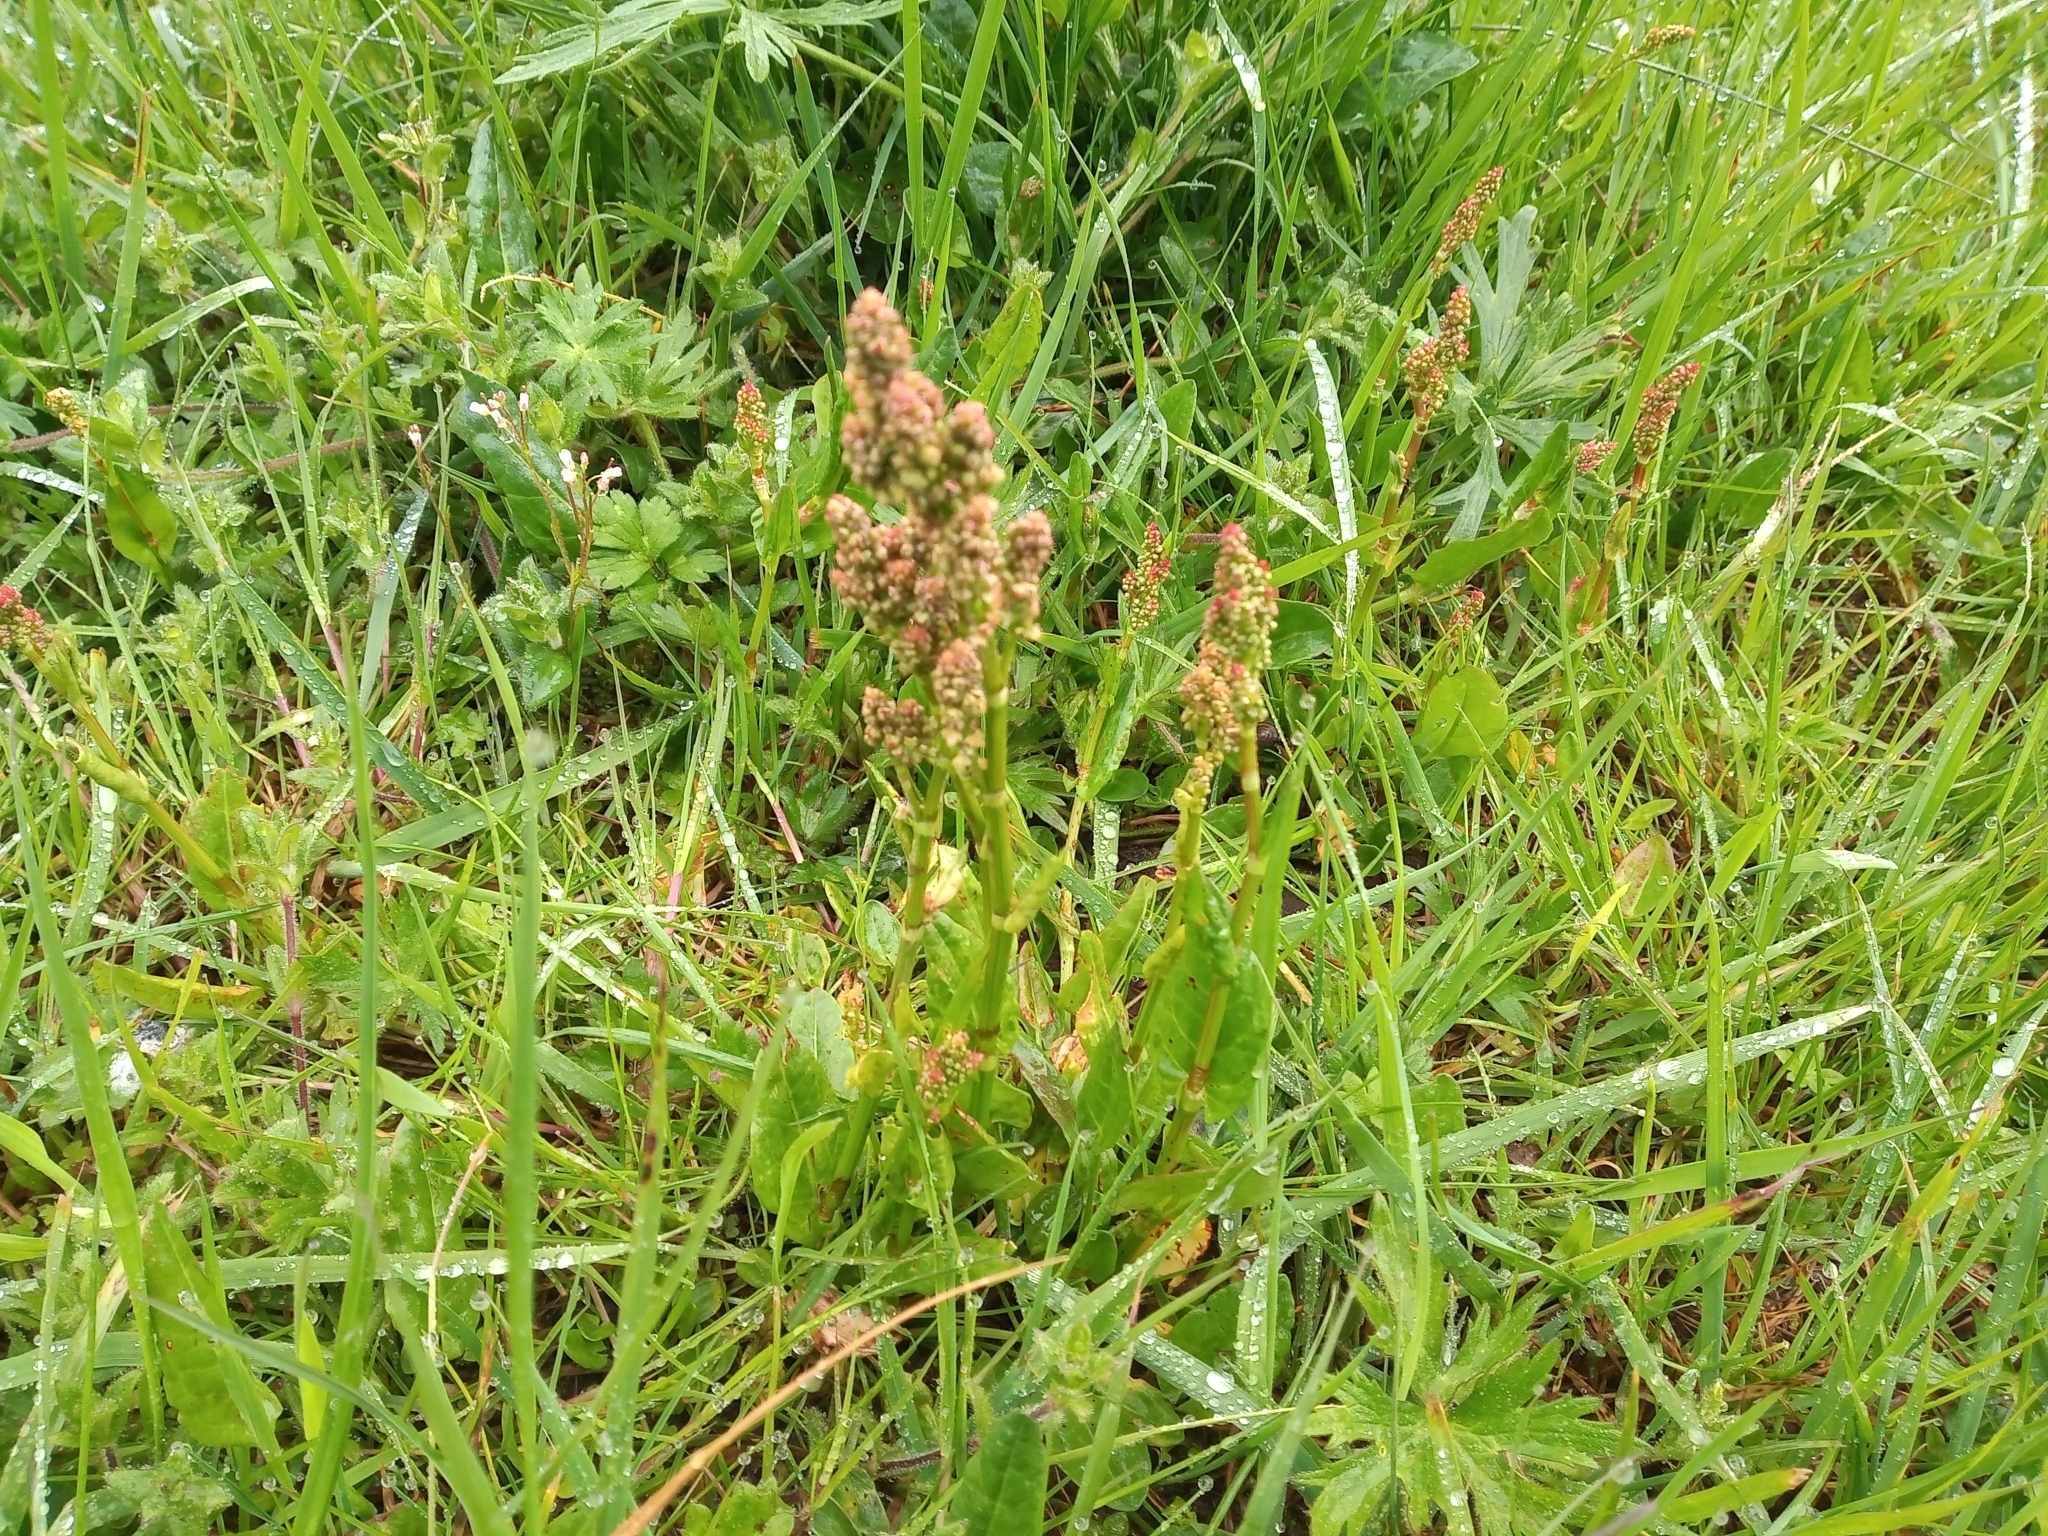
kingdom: Plantae
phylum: Tracheophyta
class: Magnoliopsida
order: Caryophyllales
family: Polygonaceae
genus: Rumex
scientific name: Rumex acetosa
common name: Garden sorrel
